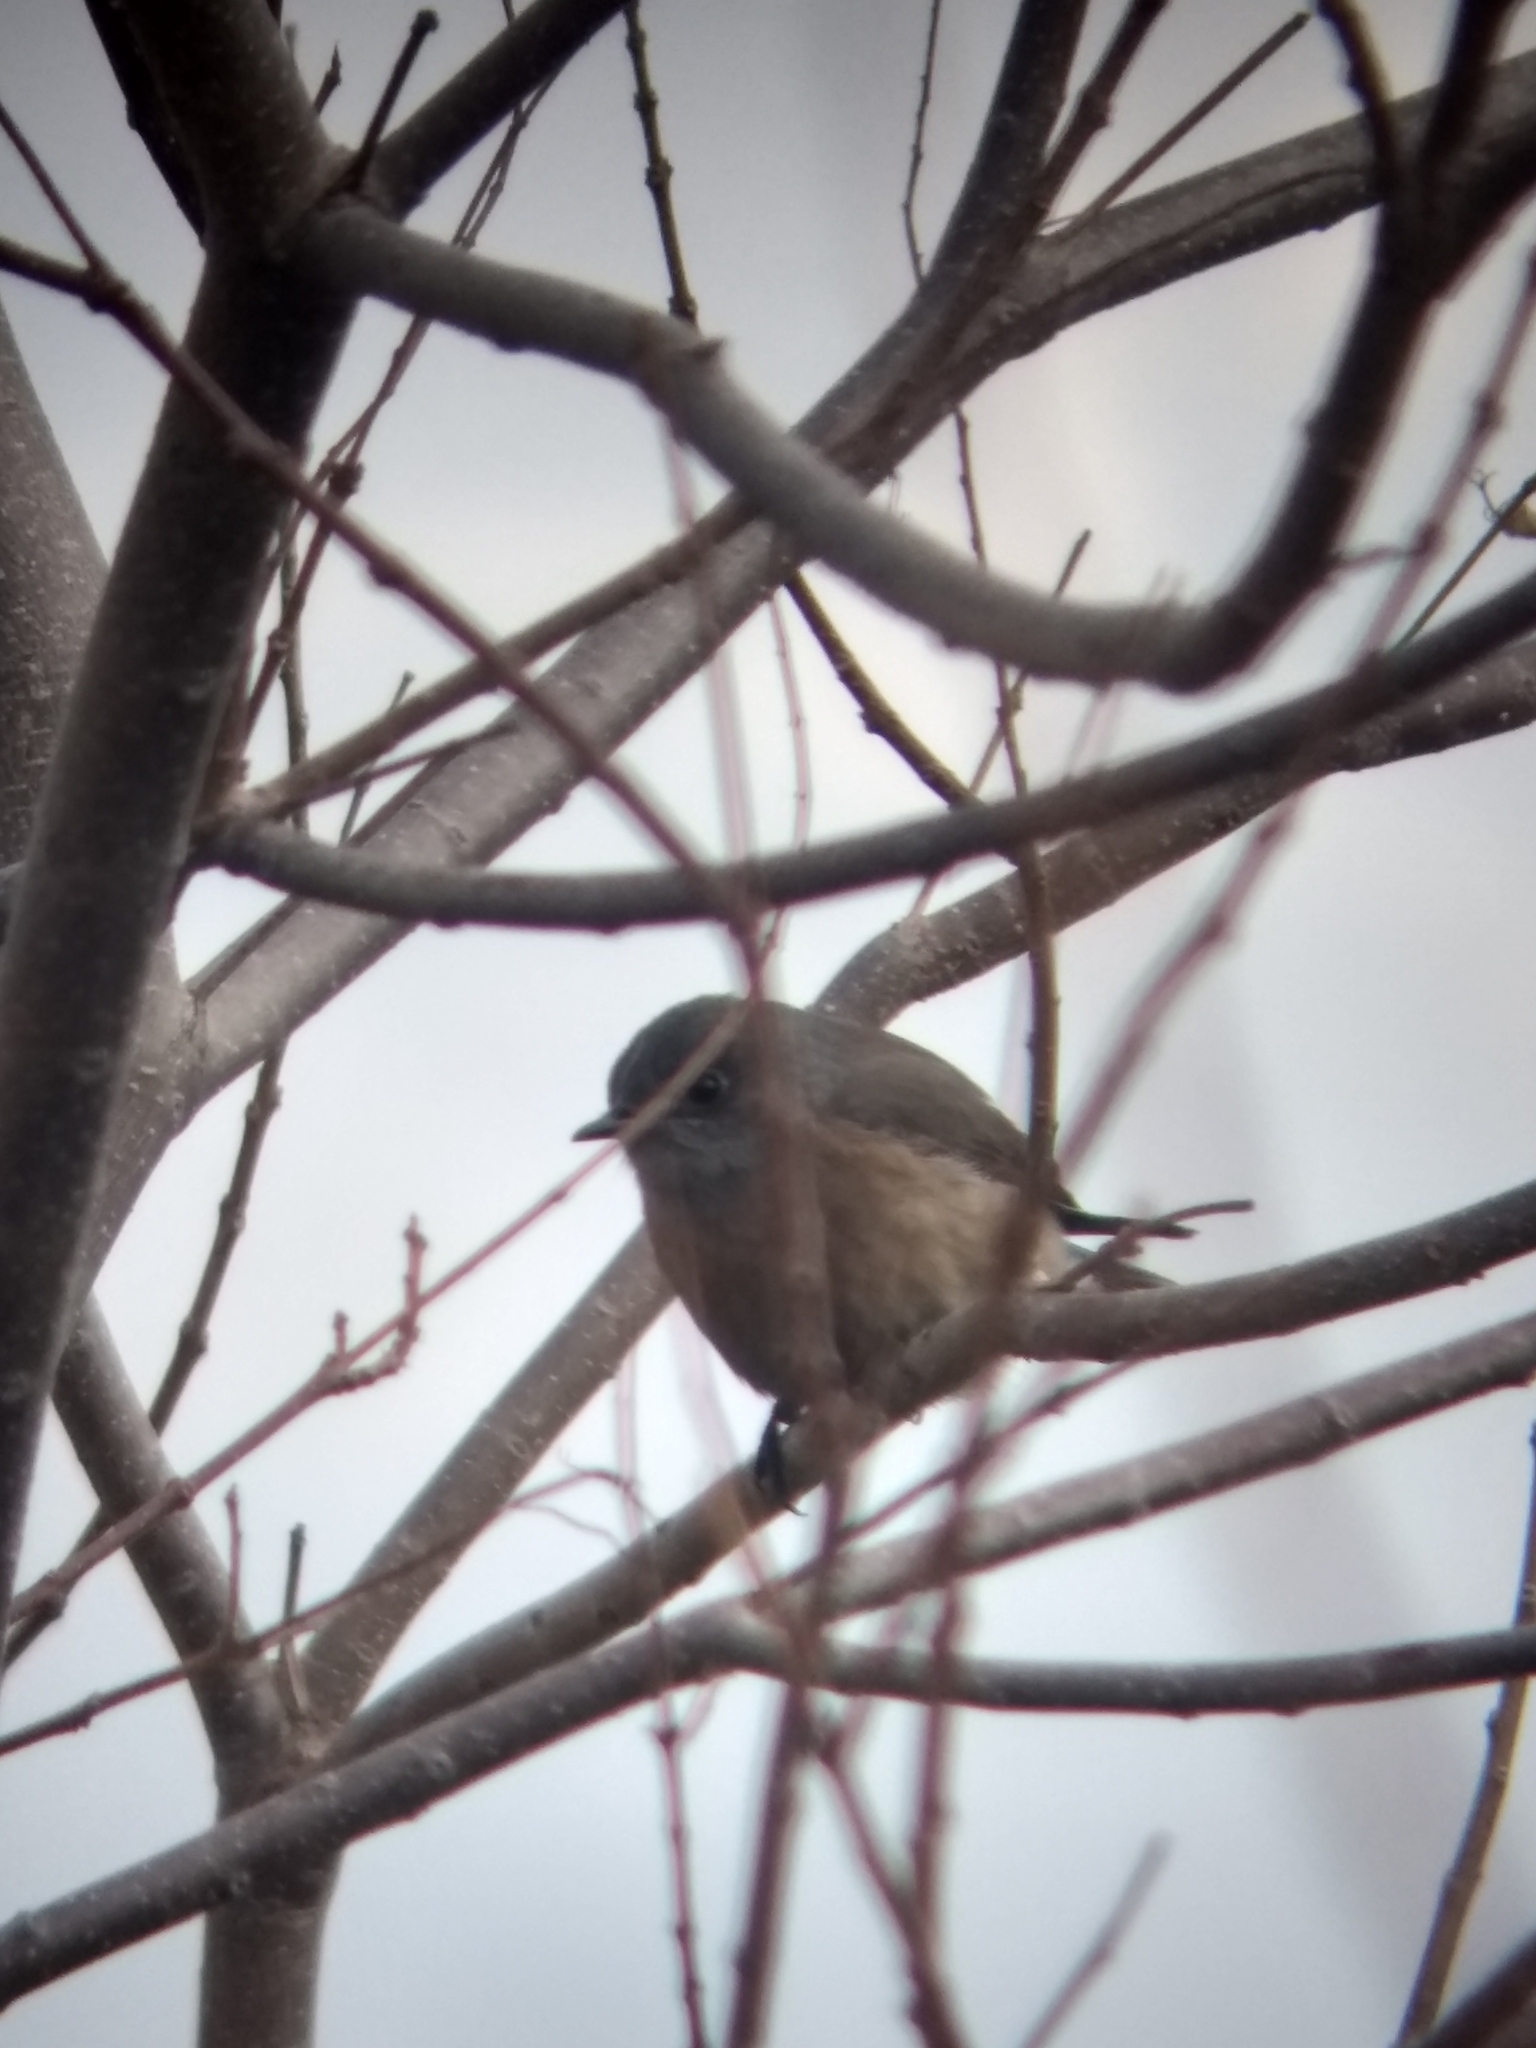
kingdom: Animalia
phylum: Chordata
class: Aves
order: Passeriformes
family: Turdidae
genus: Sialia
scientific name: Sialia mexicana
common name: Western bluebird
